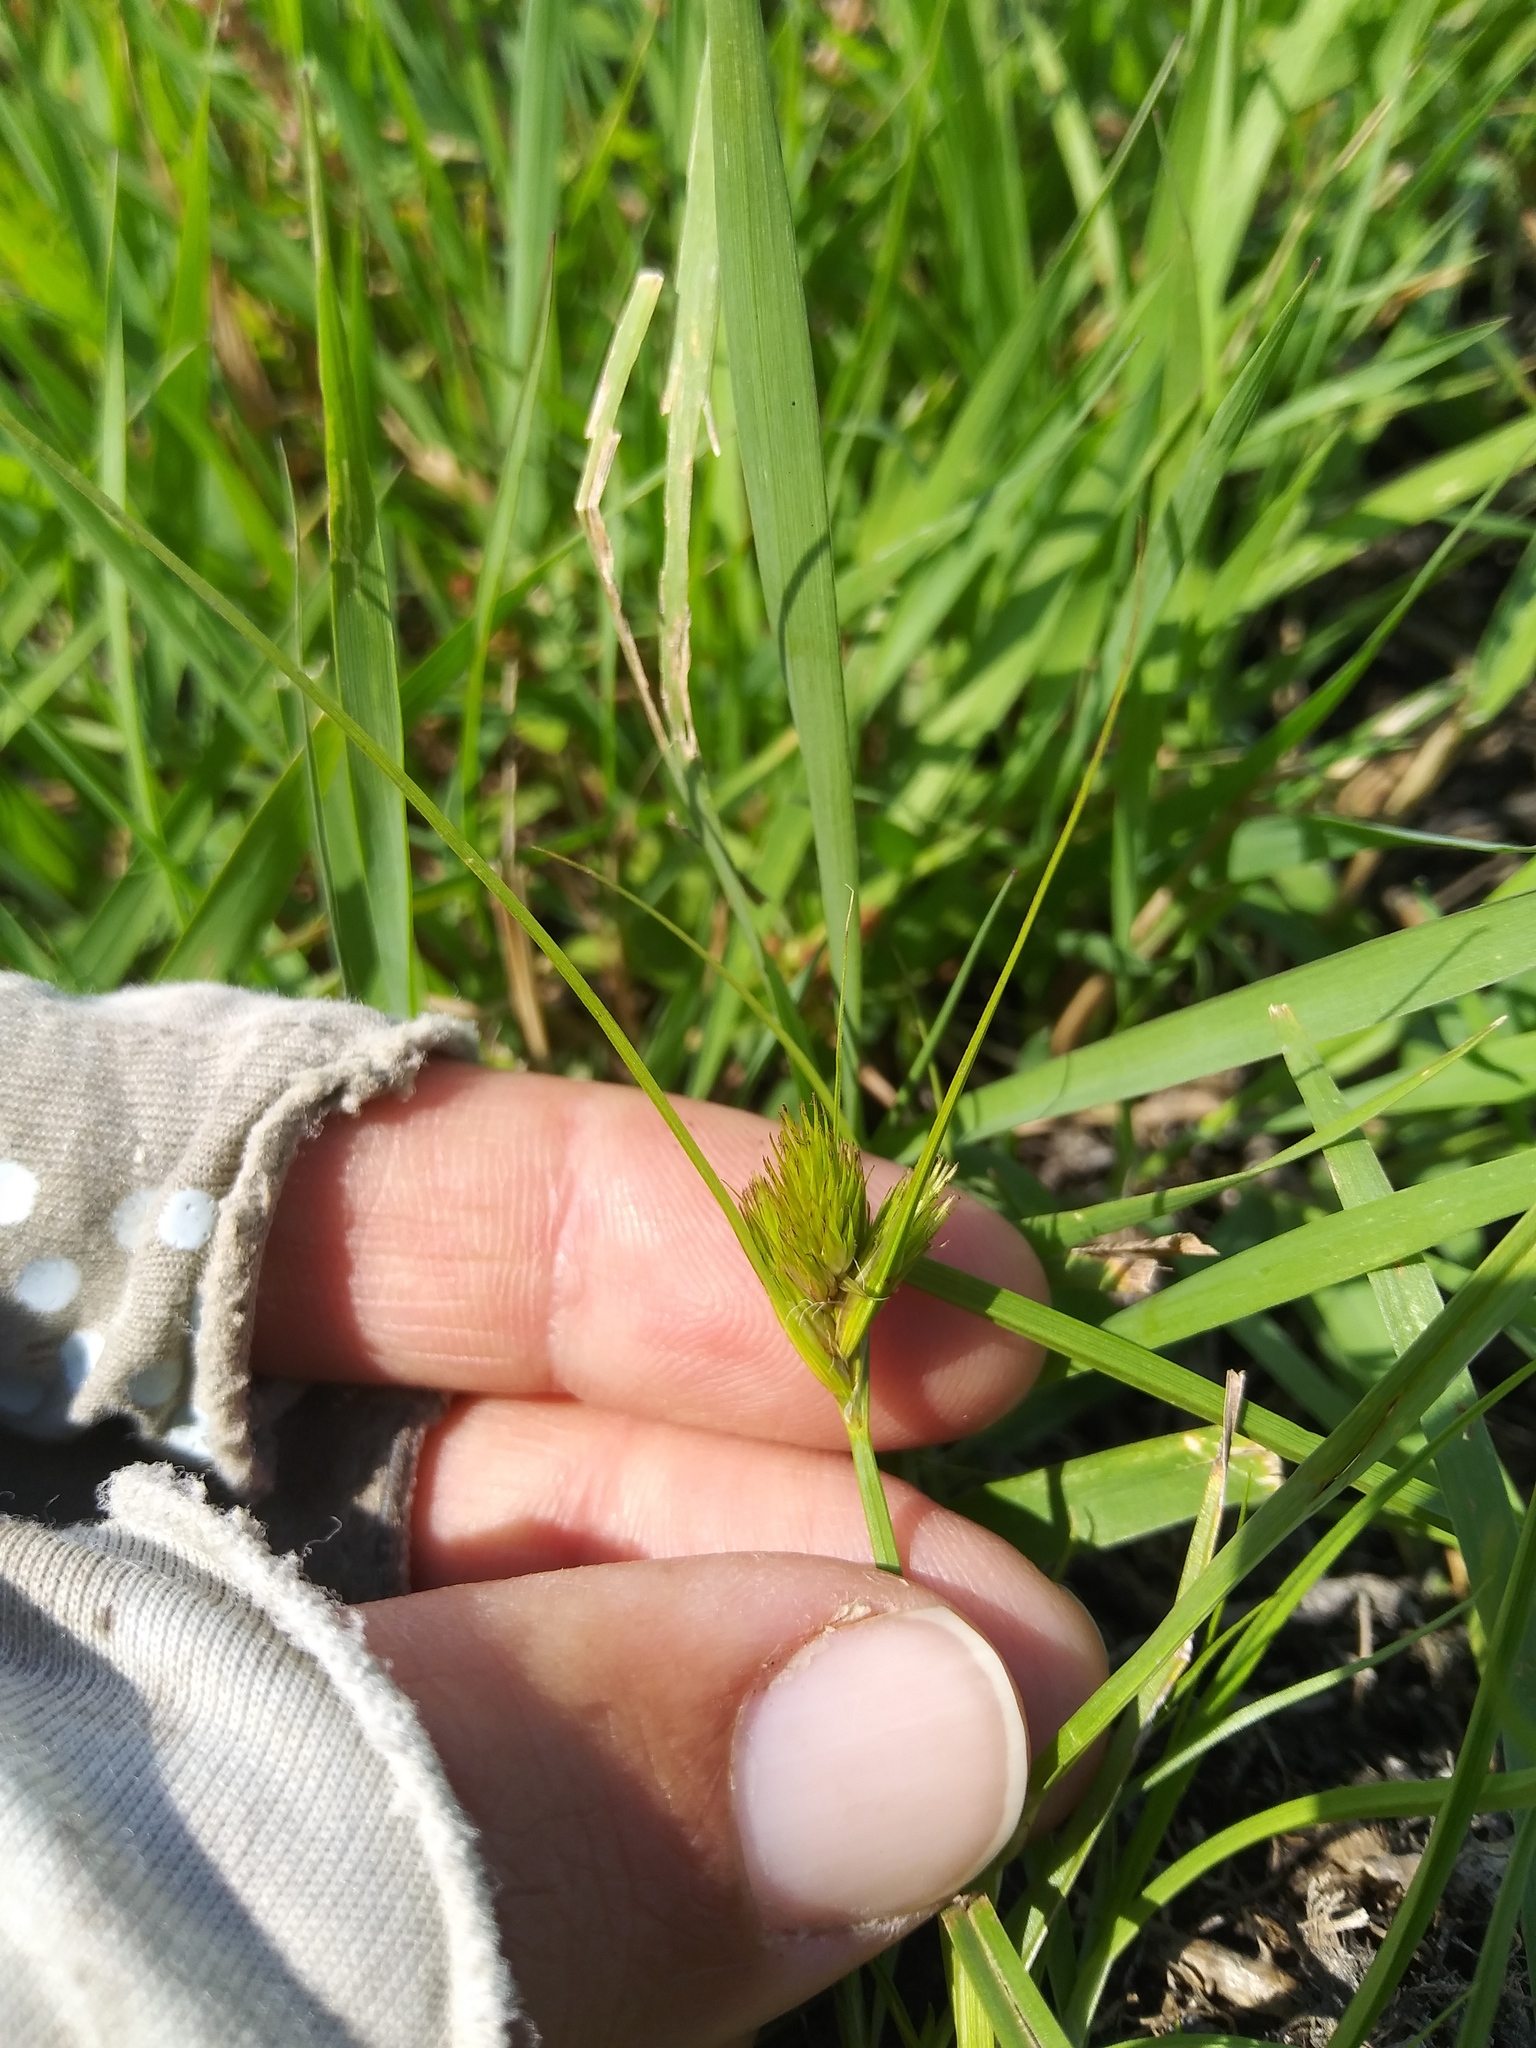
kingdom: Plantae
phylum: Tracheophyta
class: Liliopsida
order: Poales
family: Cyperaceae
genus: Carex
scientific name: Carex sychnocephala
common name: Dense long-beaked sedge
